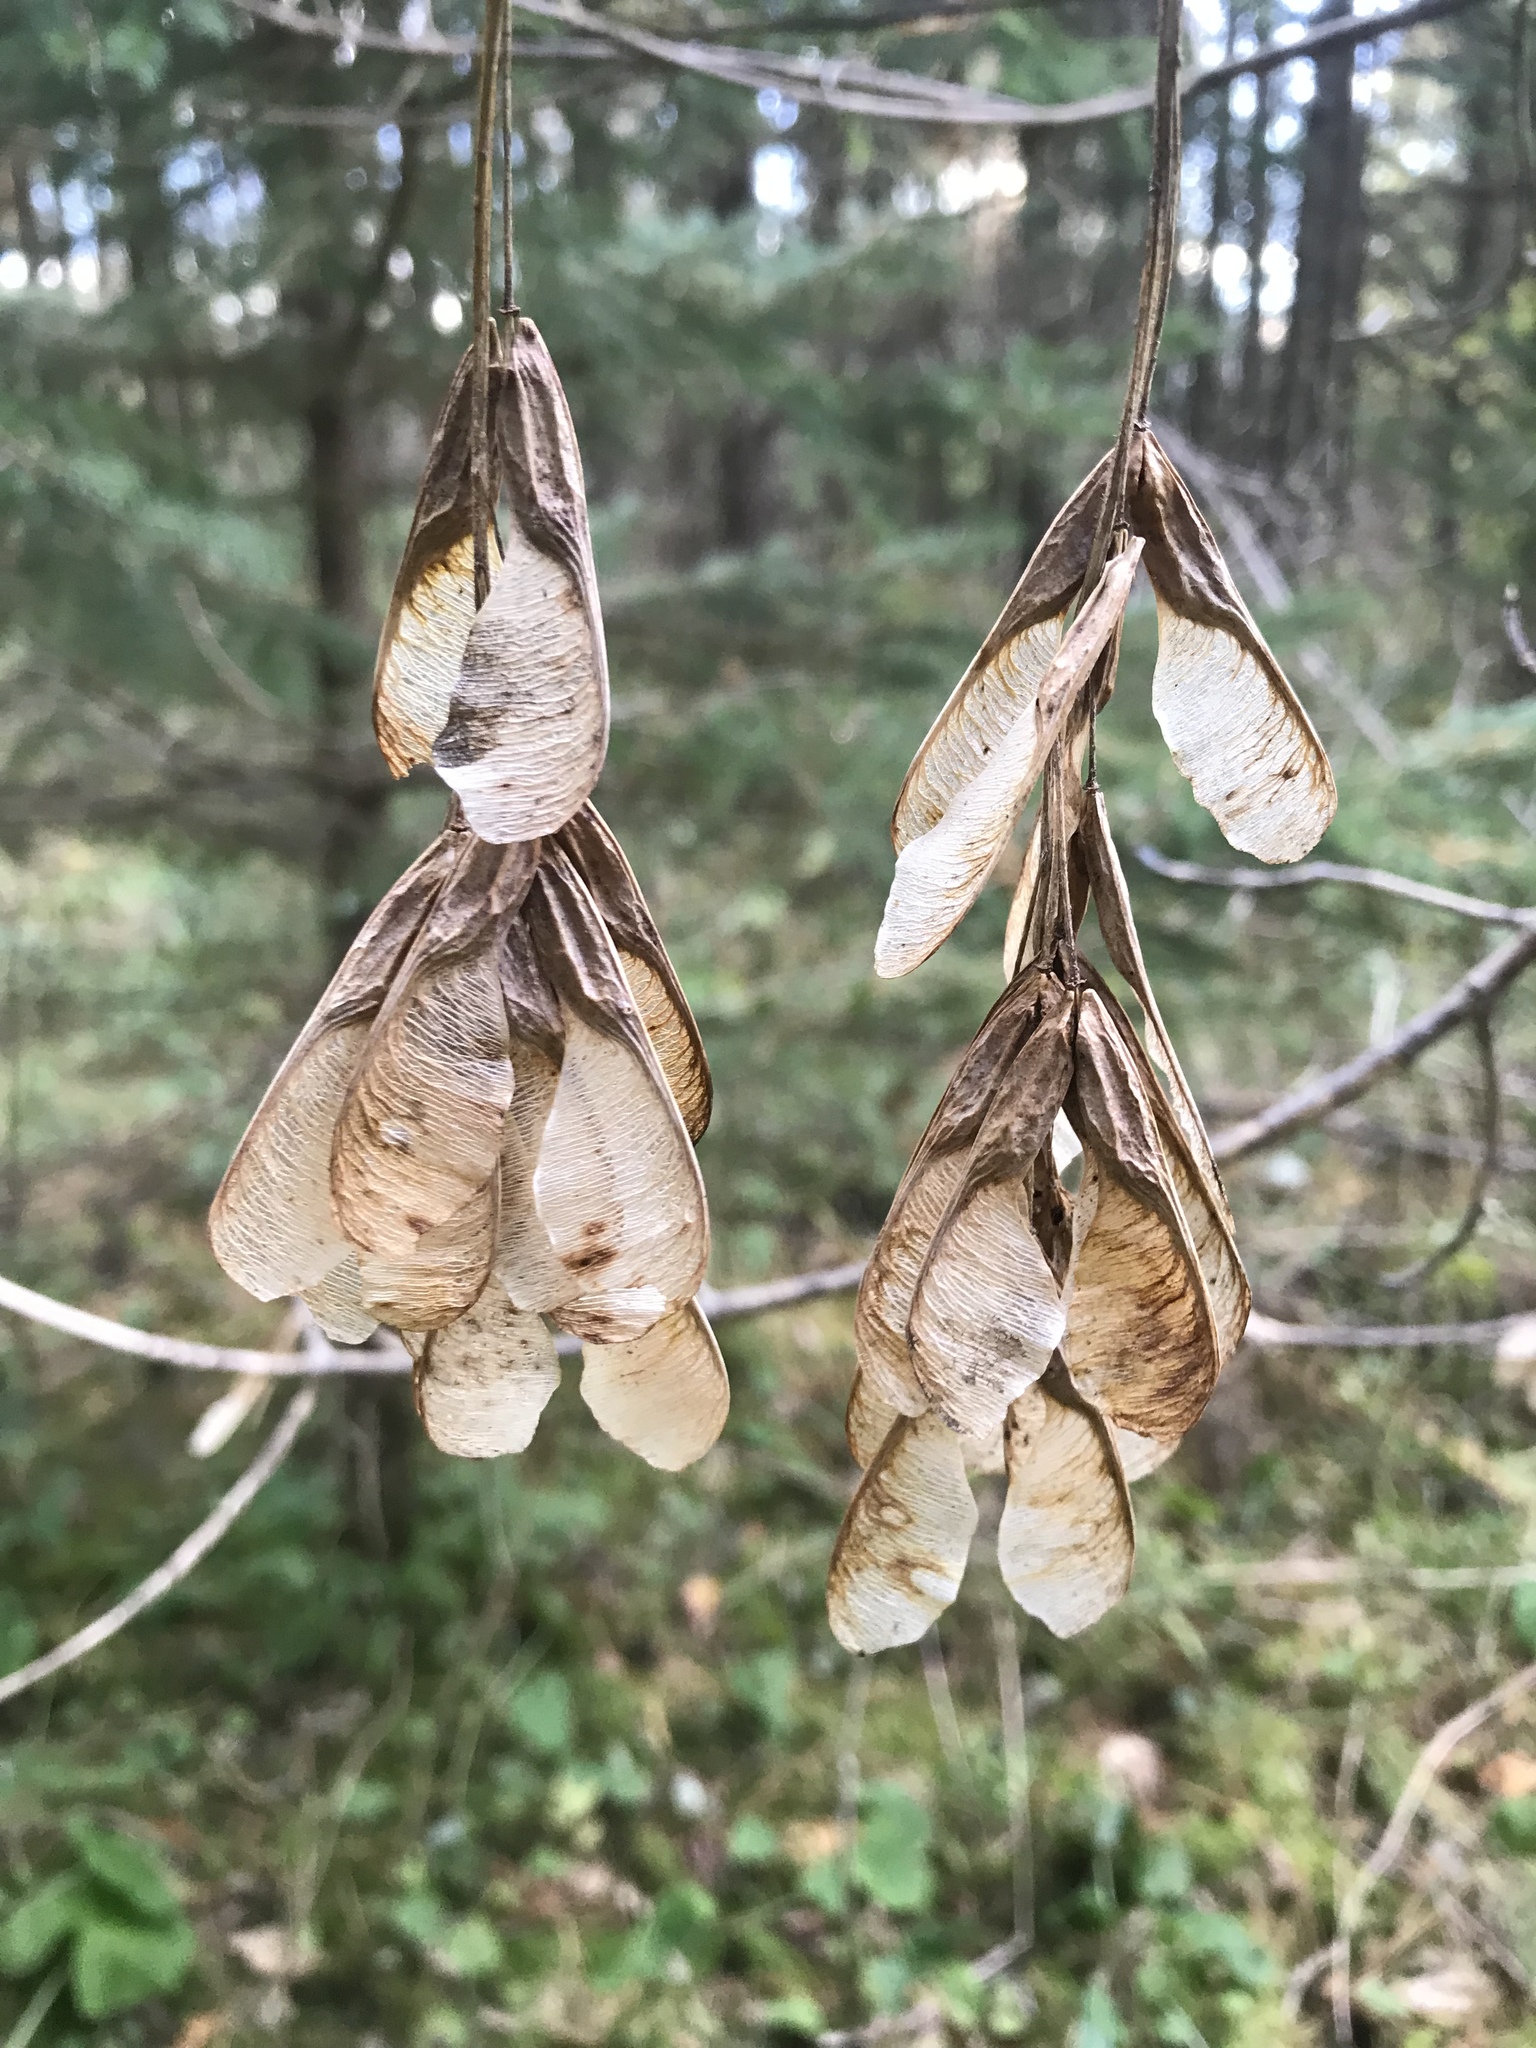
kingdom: Plantae
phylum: Tracheophyta
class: Magnoliopsida
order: Sapindales
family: Sapindaceae
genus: Acer
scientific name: Acer negundo
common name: Ashleaf maple
